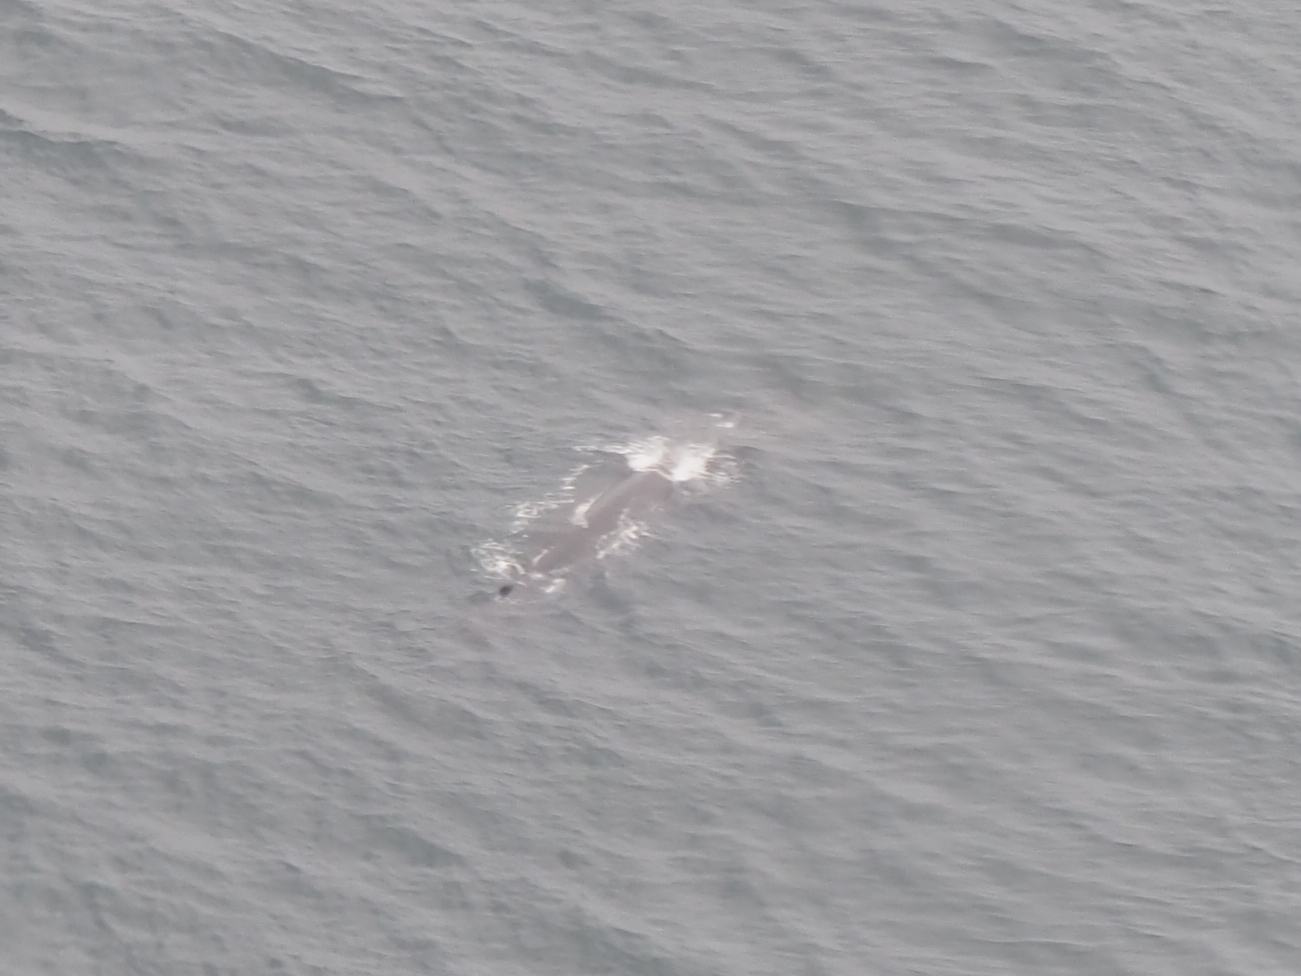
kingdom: Animalia
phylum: Chordata
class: Mammalia
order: Cetacea
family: Balaenopteridae
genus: Balaenoptera
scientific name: Balaenoptera physalus
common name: Fin whale
